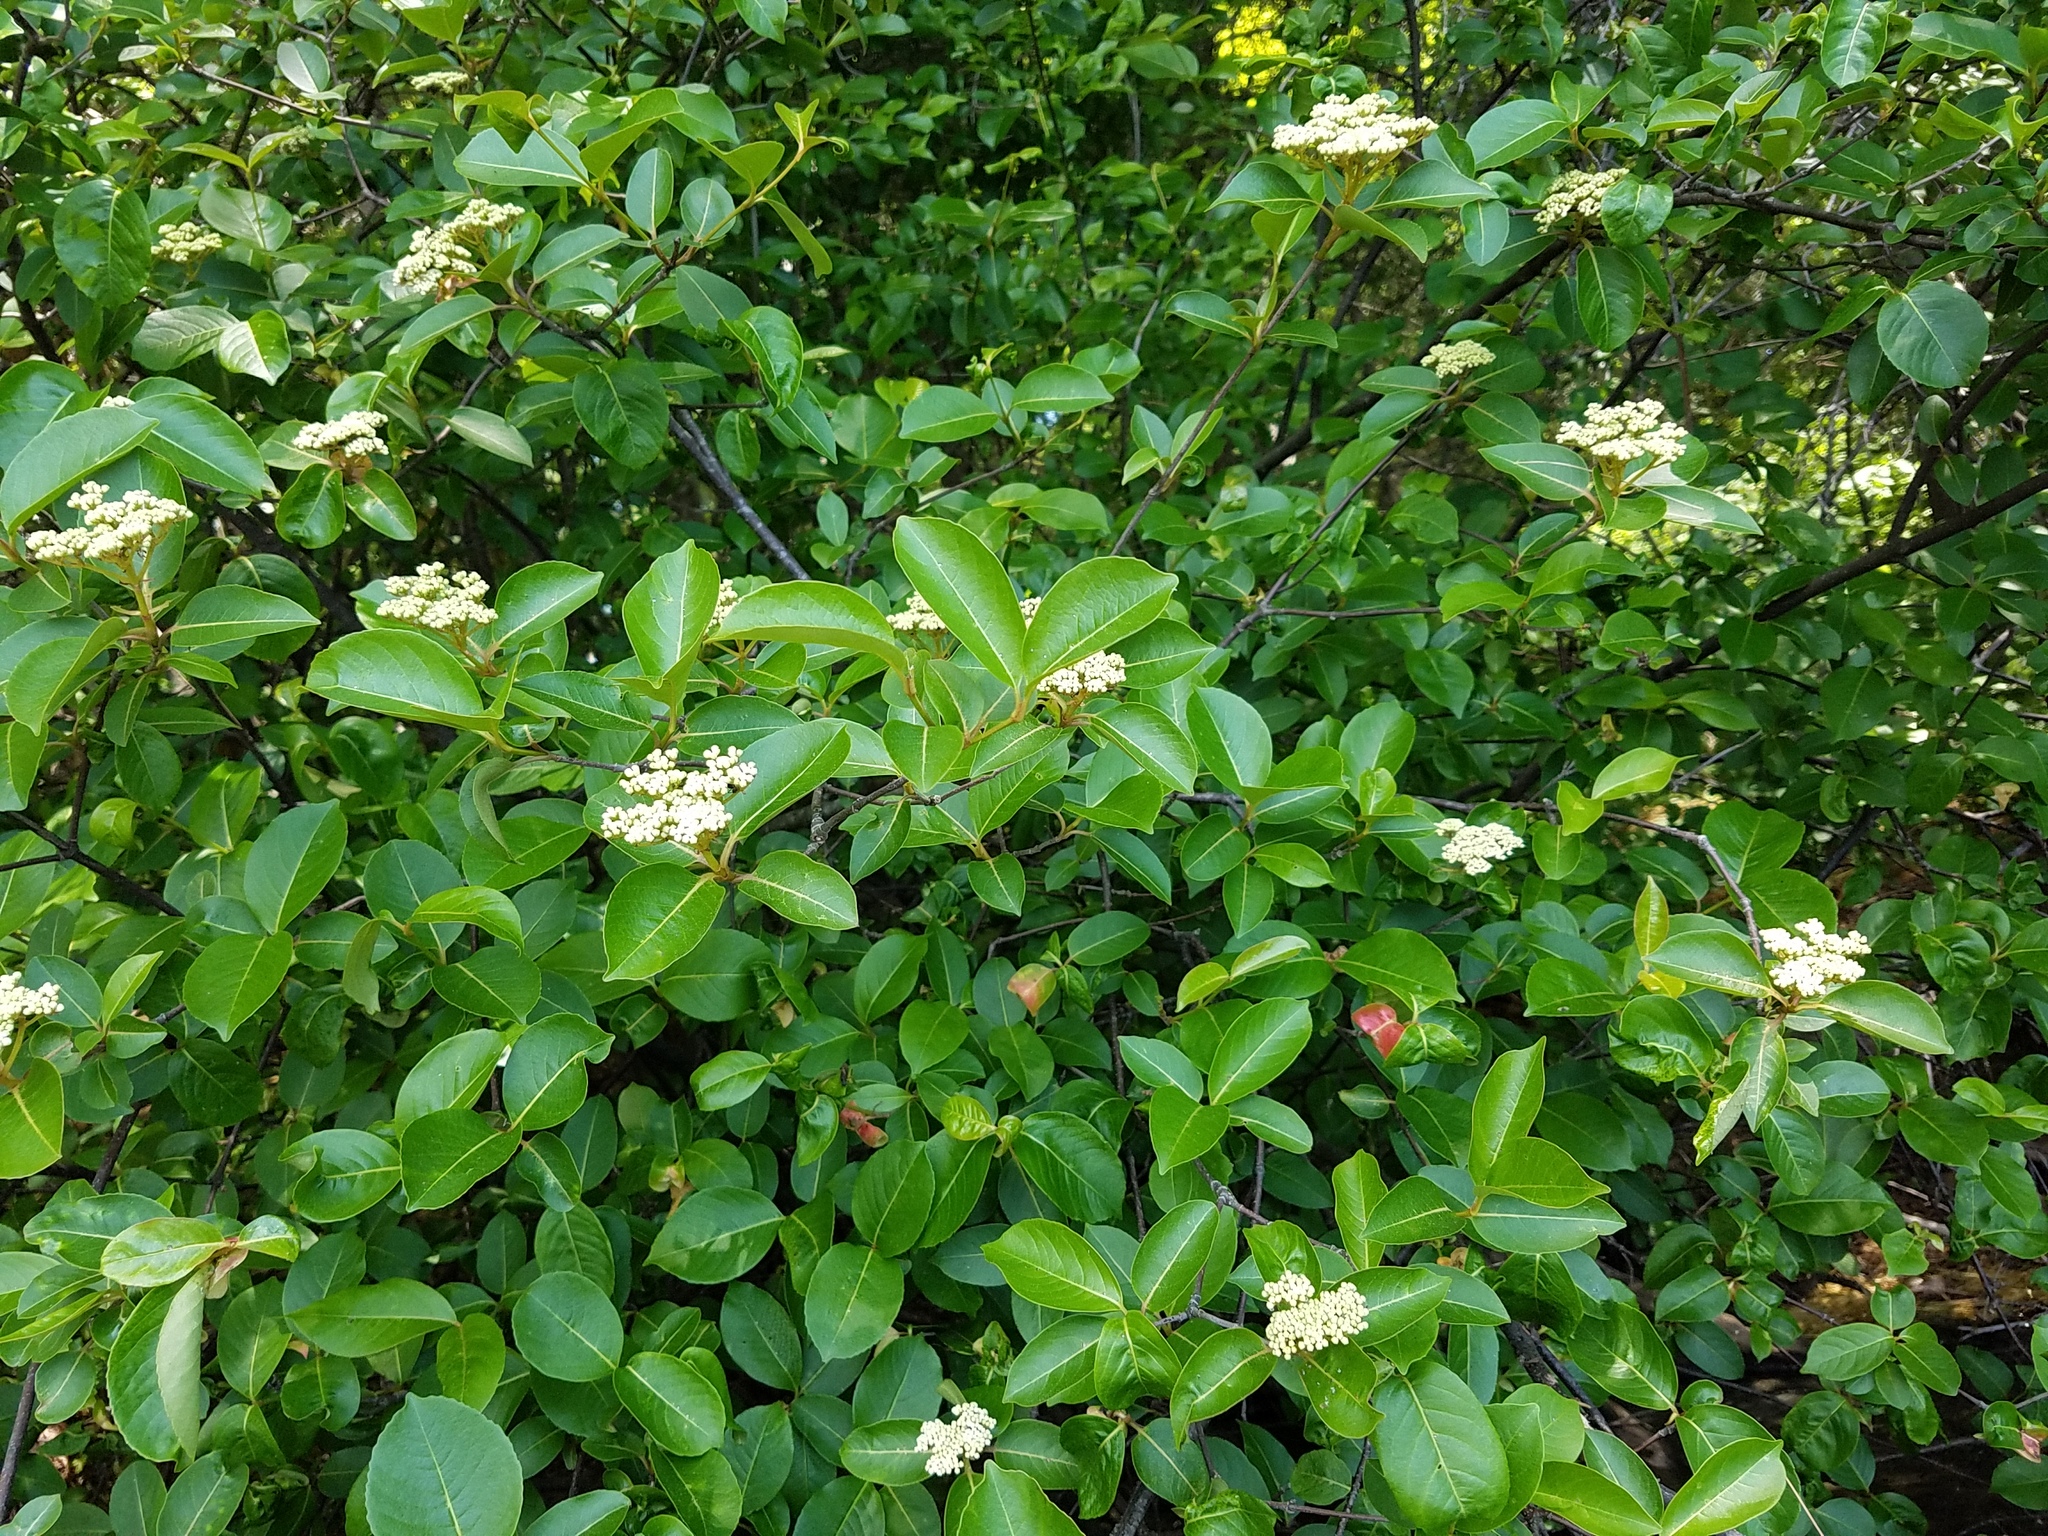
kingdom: Plantae
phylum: Tracheophyta
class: Magnoliopsida
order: Dipsacales
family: Viburnaceae
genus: Viburnum
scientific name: Viburnum cassinoides
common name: Swamp haw
